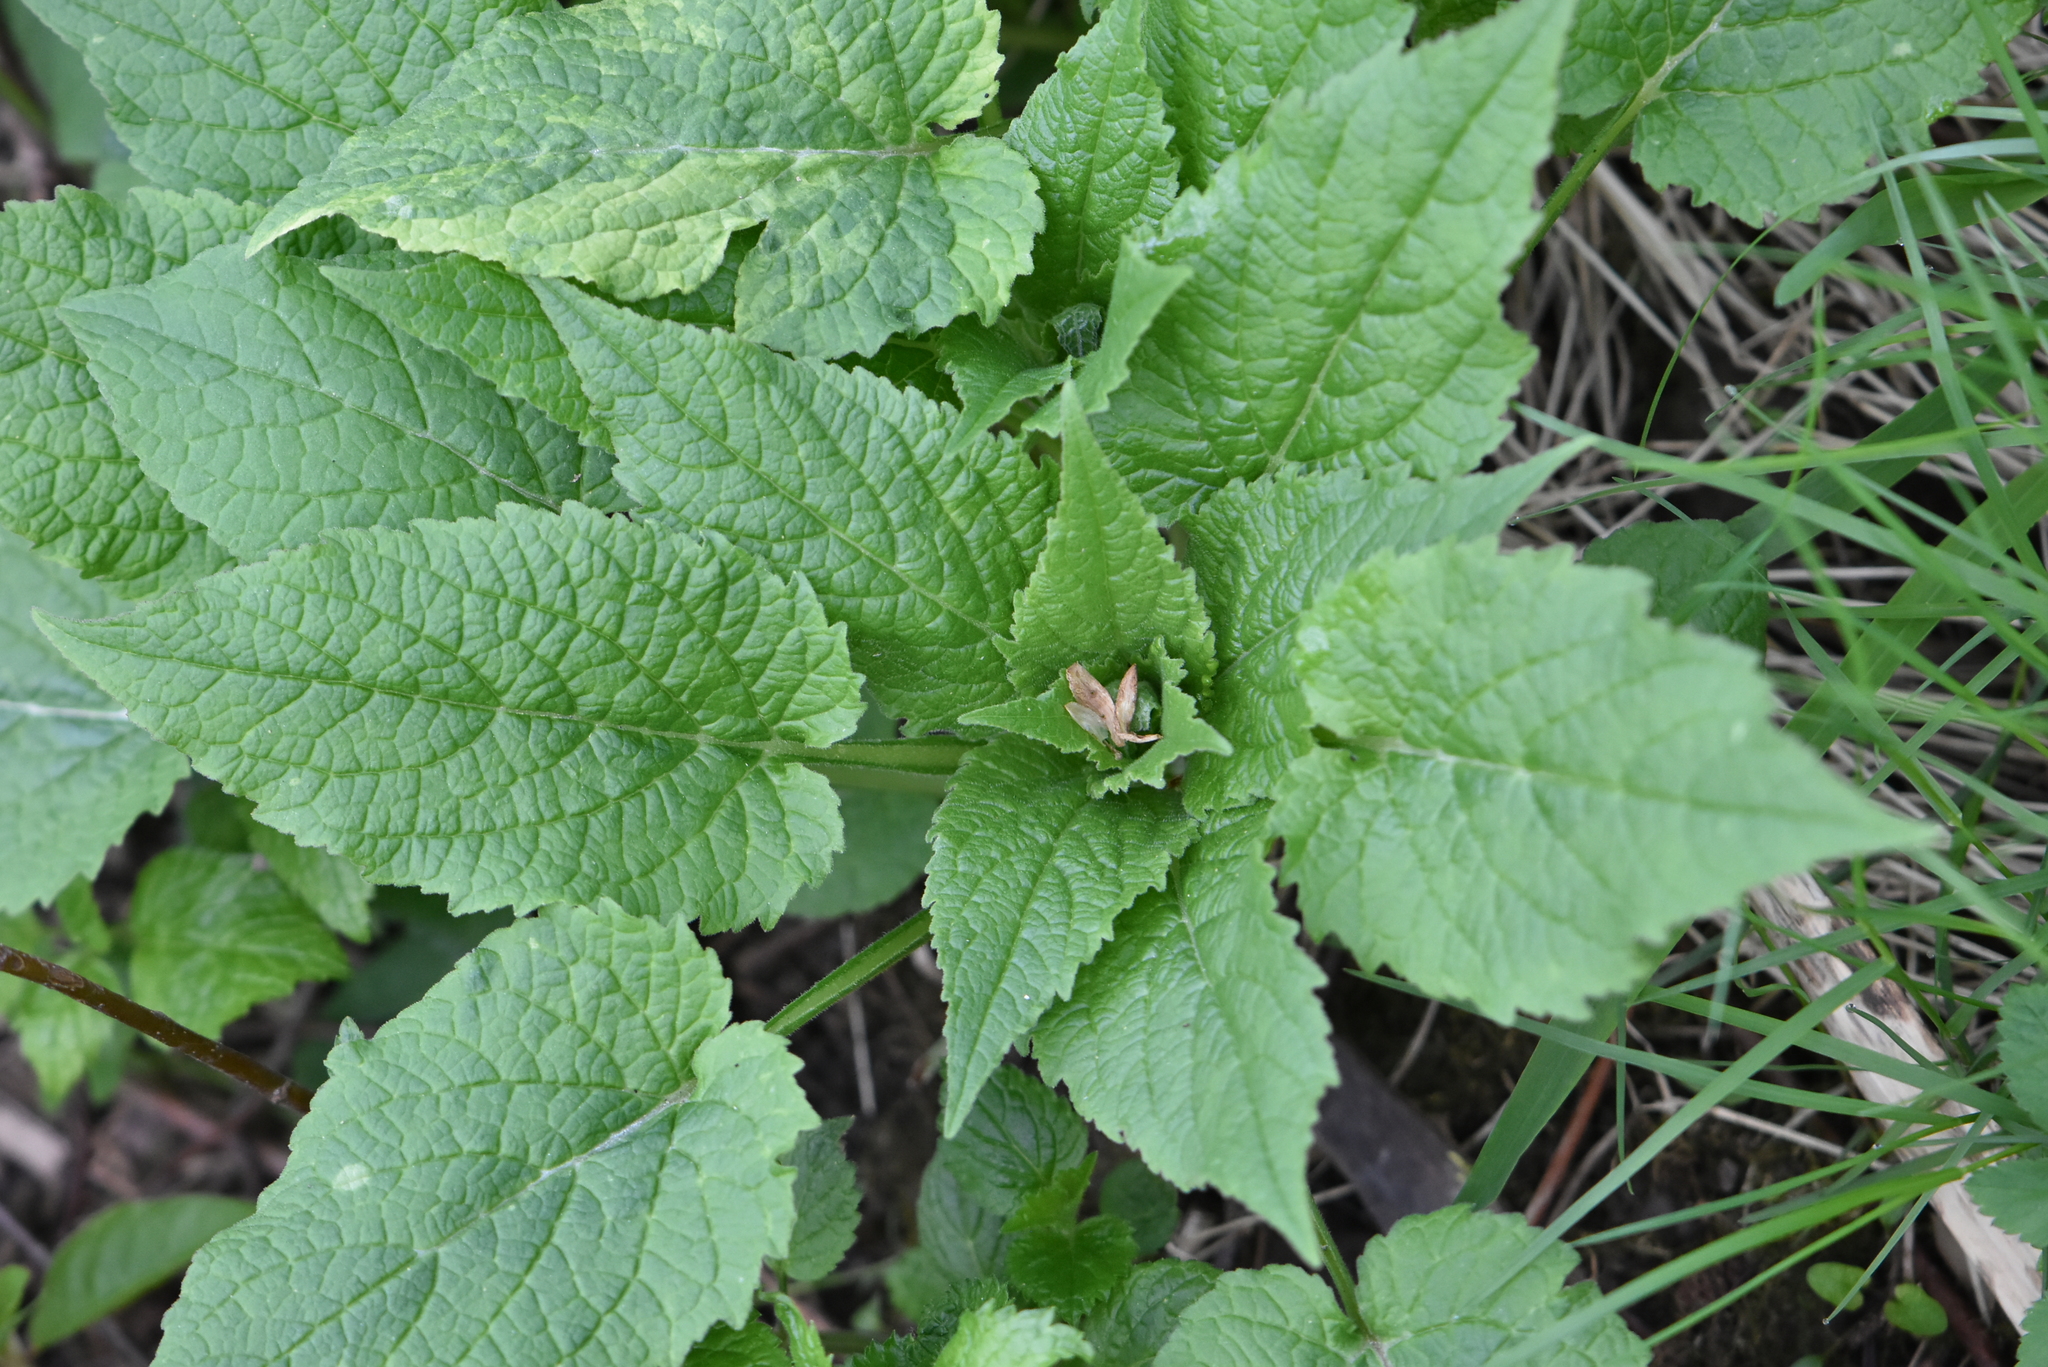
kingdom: Plantae
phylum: Tracheophyta
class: Magnoliopsida
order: Asterales
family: Campanulaceae
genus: Campanula
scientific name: Campanula latifolia
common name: Giant bellflower
